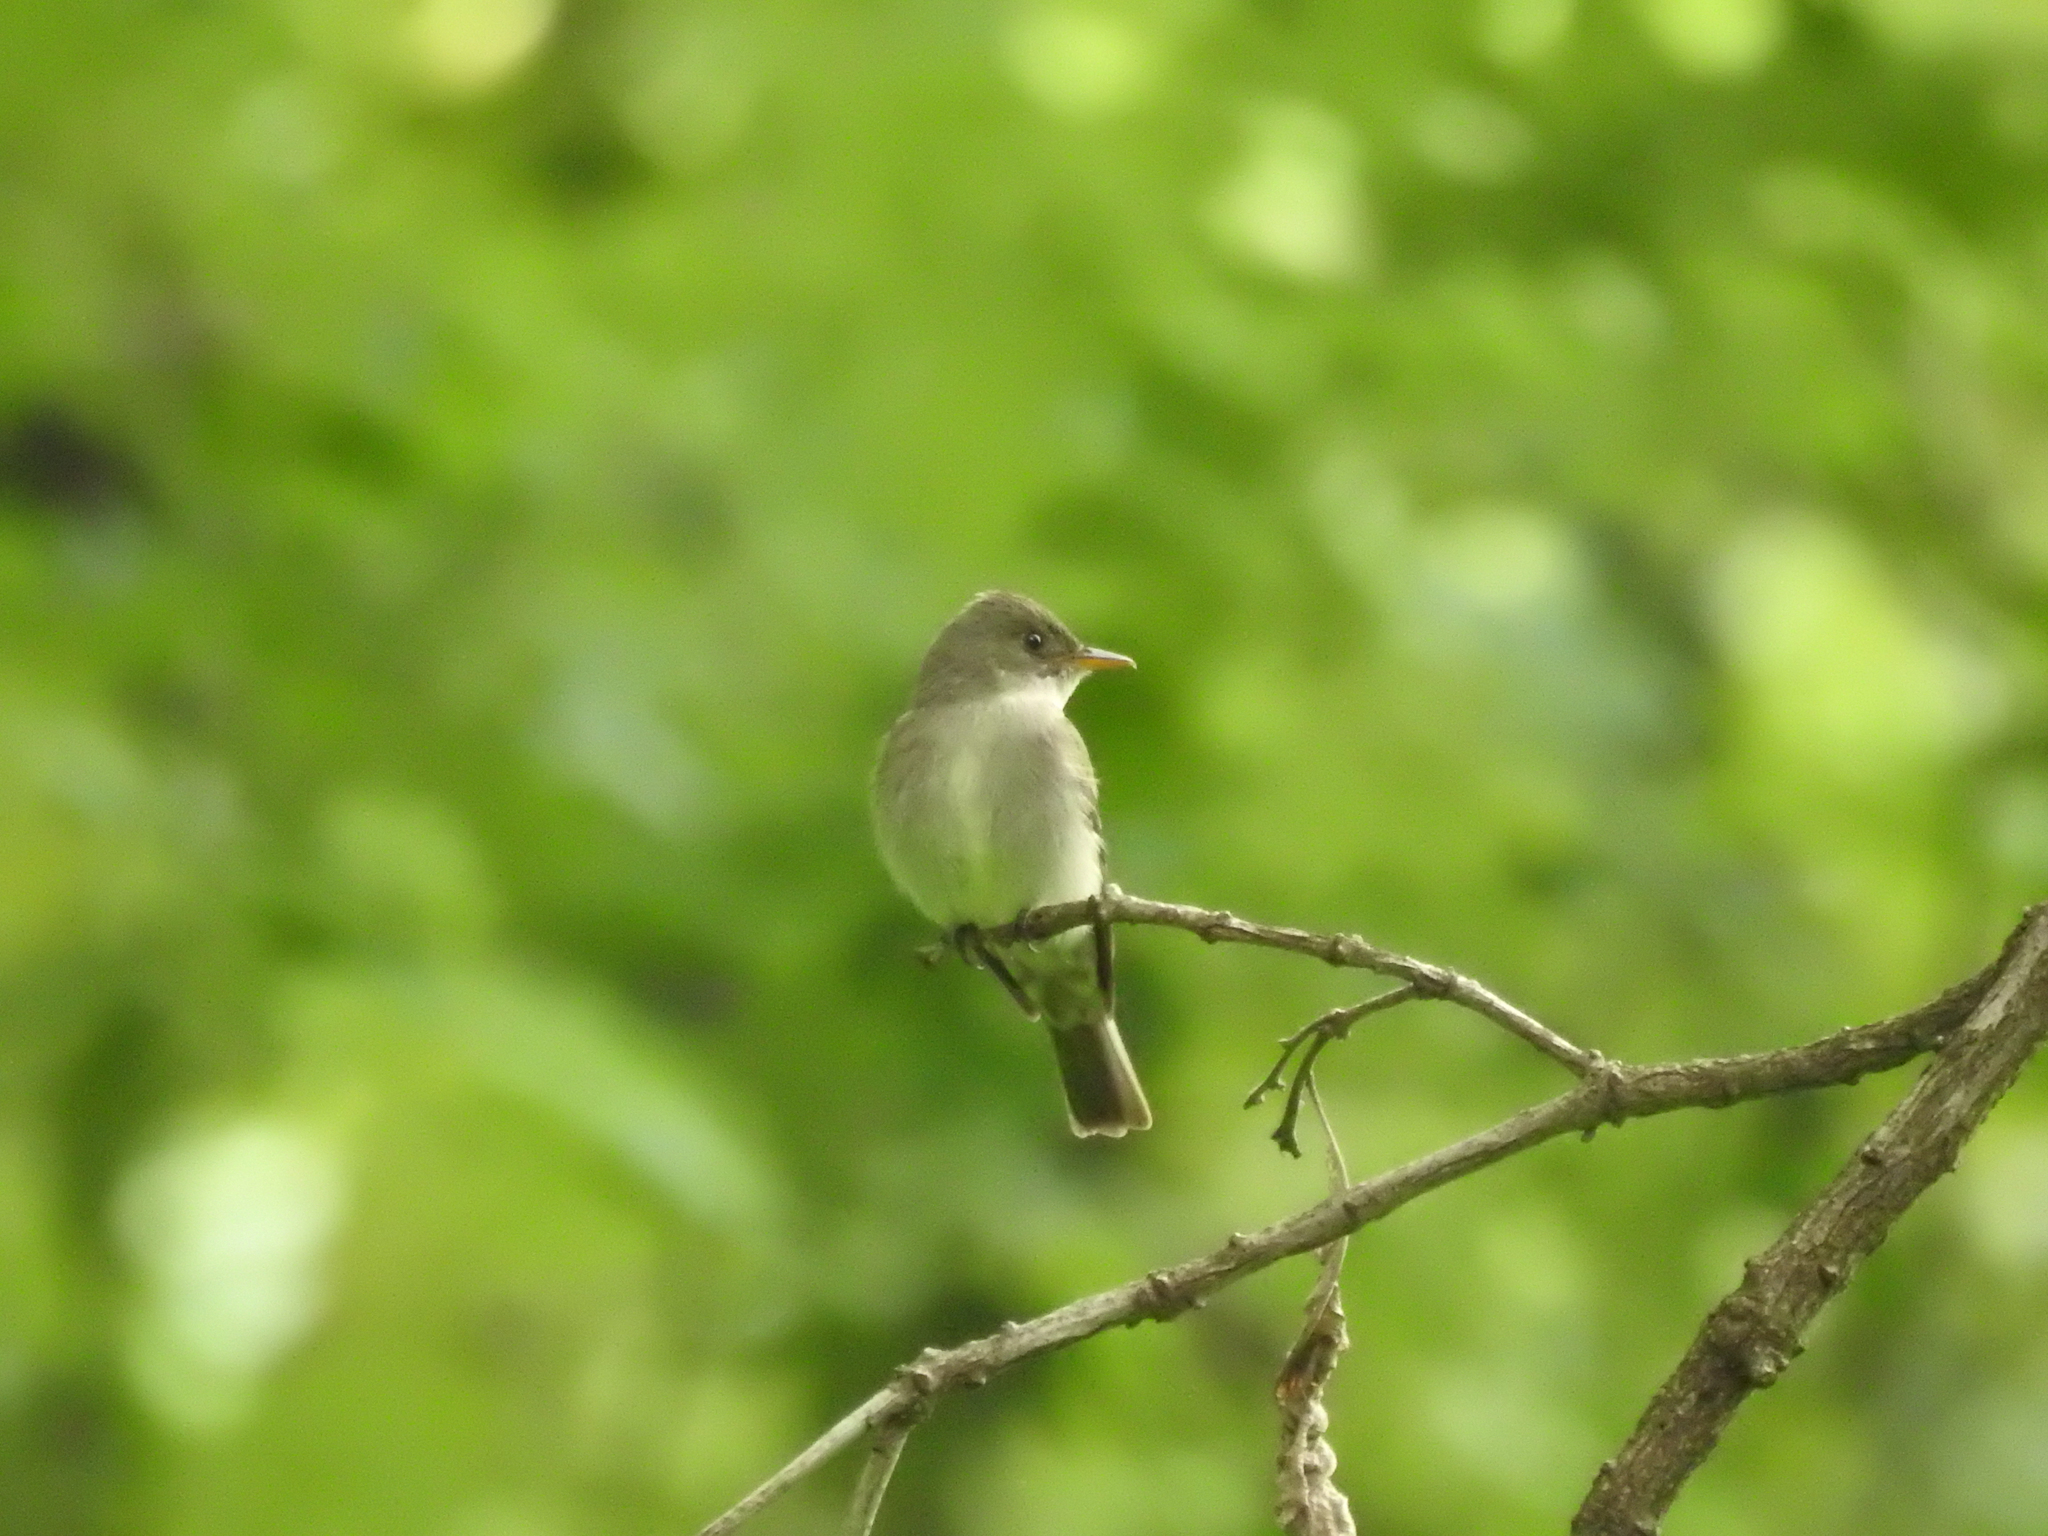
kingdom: Animalia
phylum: Chordata
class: Aves
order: Passeriformes
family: Tyrannidae
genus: Contopus
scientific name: Contopus virens
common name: Eastern wood-pewee
